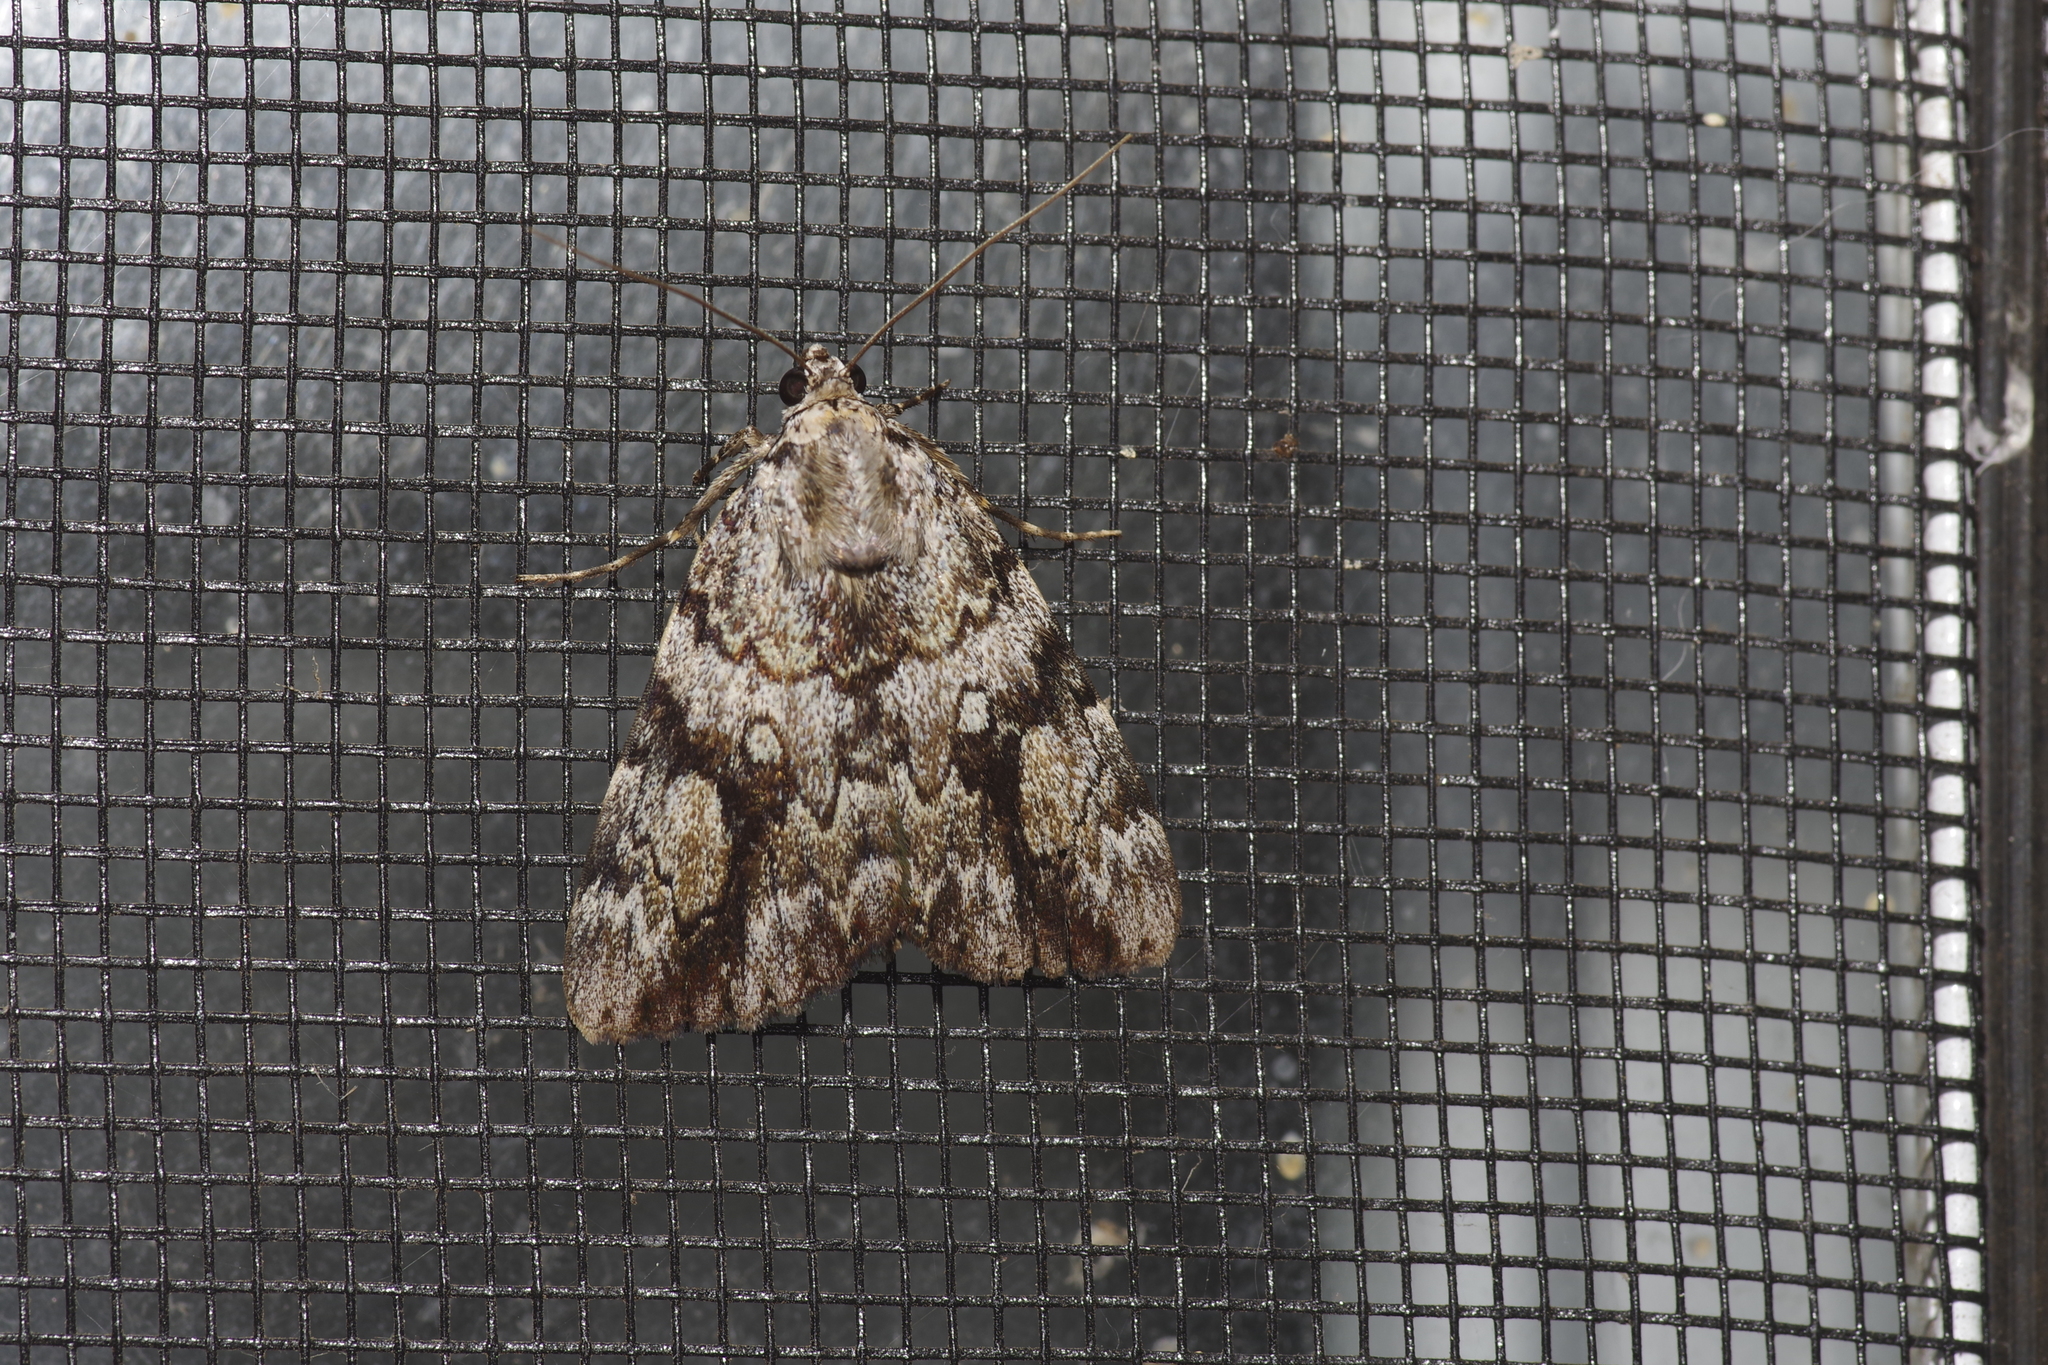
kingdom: Animalia
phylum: Arthropoda
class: Insecta
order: Lepidoptera
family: Erebidae
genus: Catocala
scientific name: Catocala amica
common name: Girlfriend underwing
